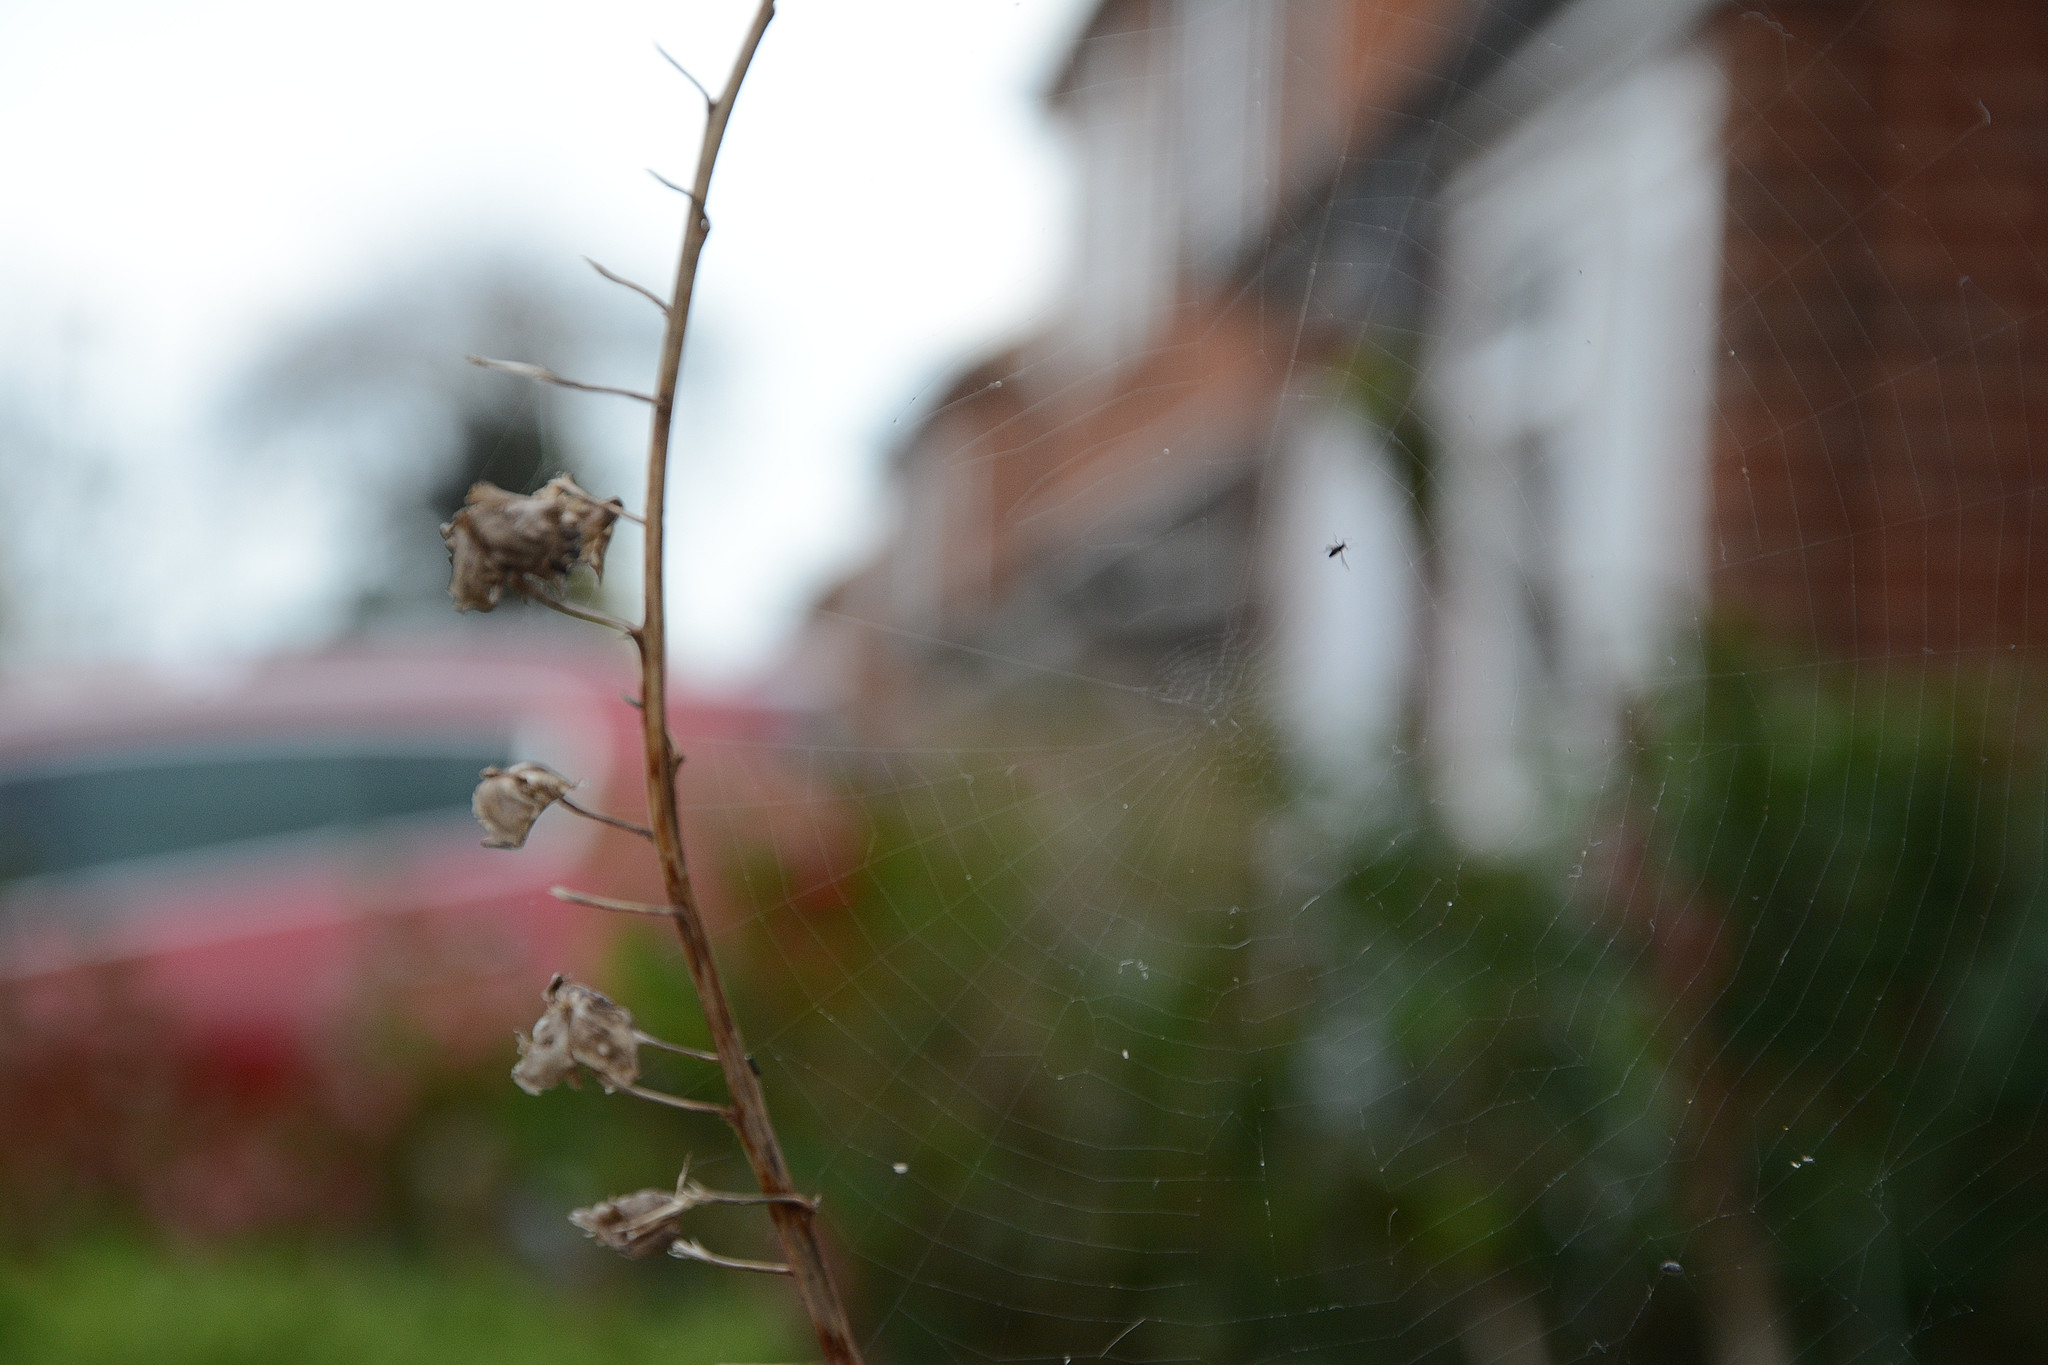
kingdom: Animalia
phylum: Arthropoda
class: Arachnida
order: Araneae
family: Araneidae
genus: Zygiella
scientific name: Zygiella x-notata
